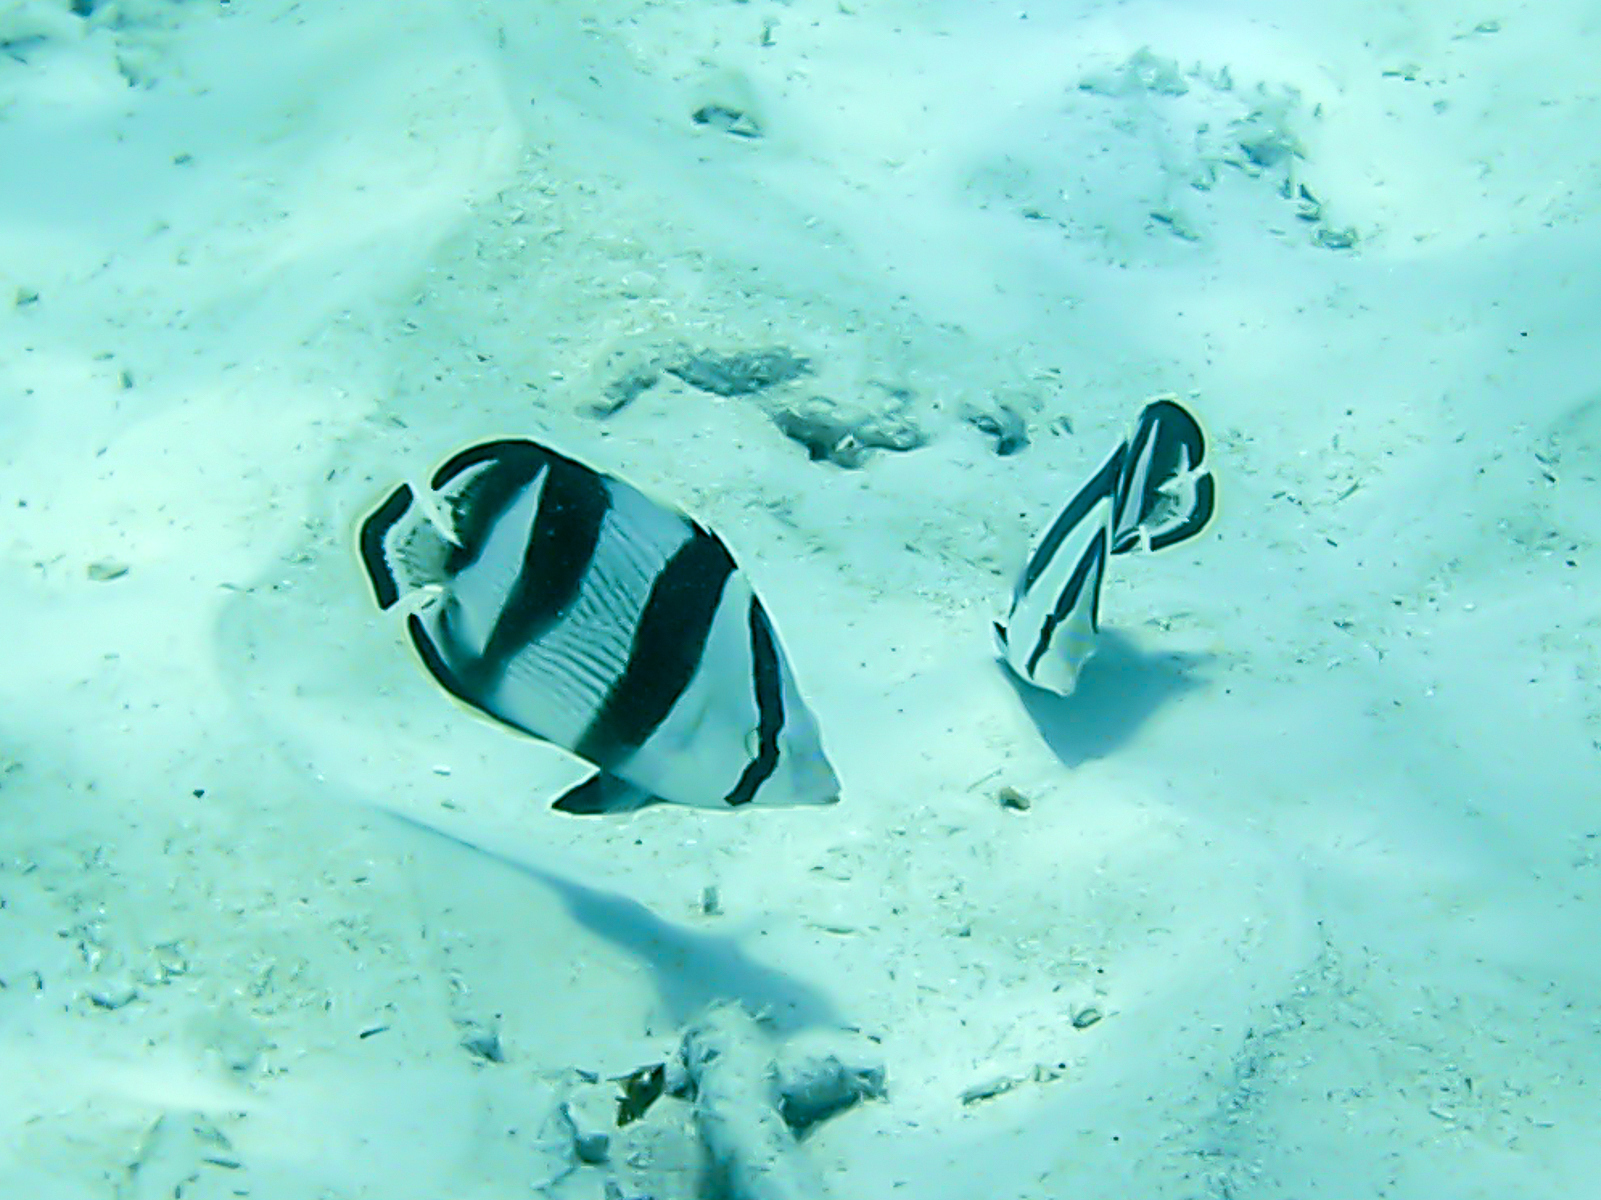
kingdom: Animalia
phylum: Chordata
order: Perciformes
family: Chaetodontidae
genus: Chaetodon
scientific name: Chaetodon striatus
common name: Banded butterflyfish
